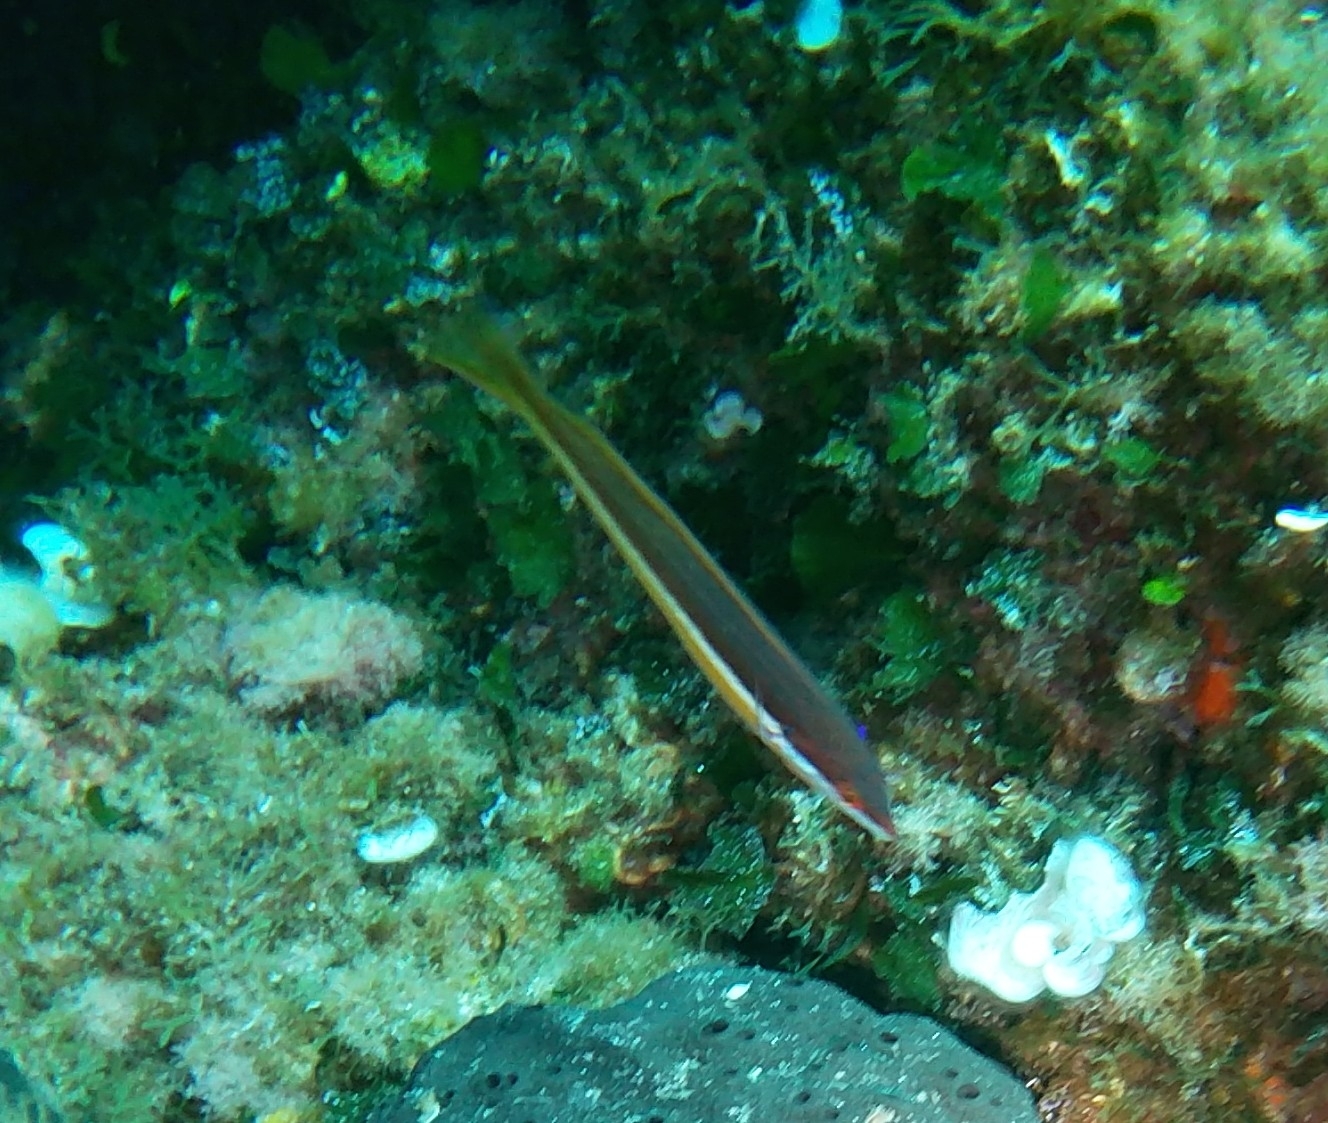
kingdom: Animalia
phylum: Chordata
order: Perciformes
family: Labridae
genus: Coris
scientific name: Coris julis
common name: Rainbow wrasse
